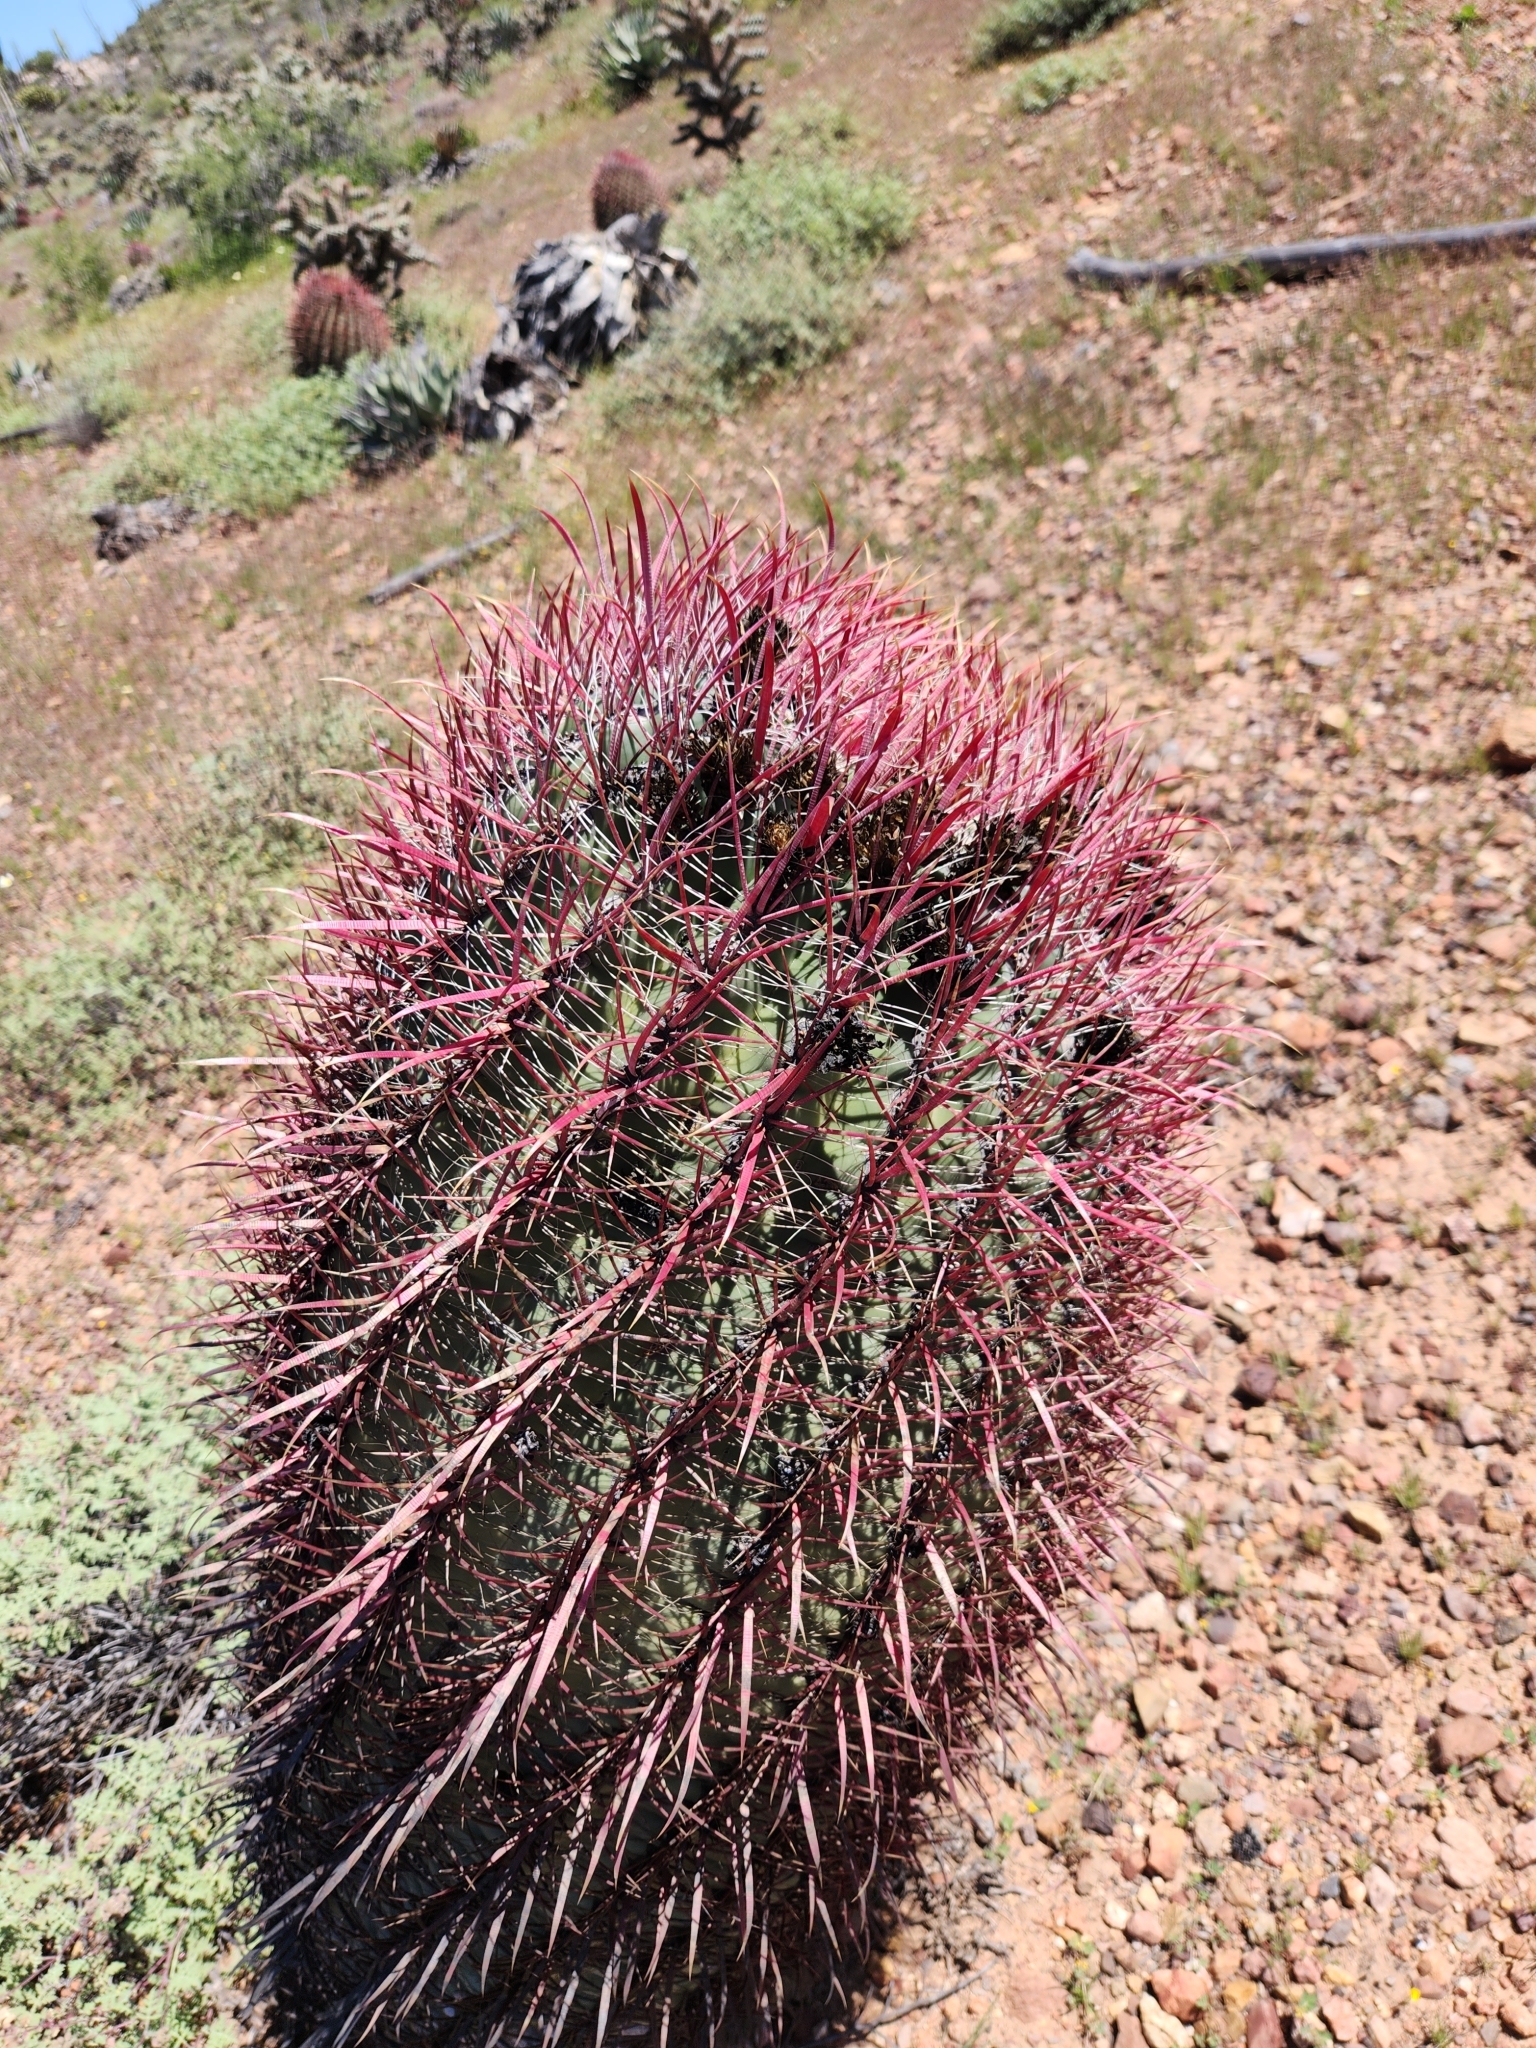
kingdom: Plantae
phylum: Tracheophyta
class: Magnoliopsida
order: Caryophyllales
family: Cactaceae
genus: Ferocactus
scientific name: Ferocactus gracilis
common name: Fire barrel cactus
